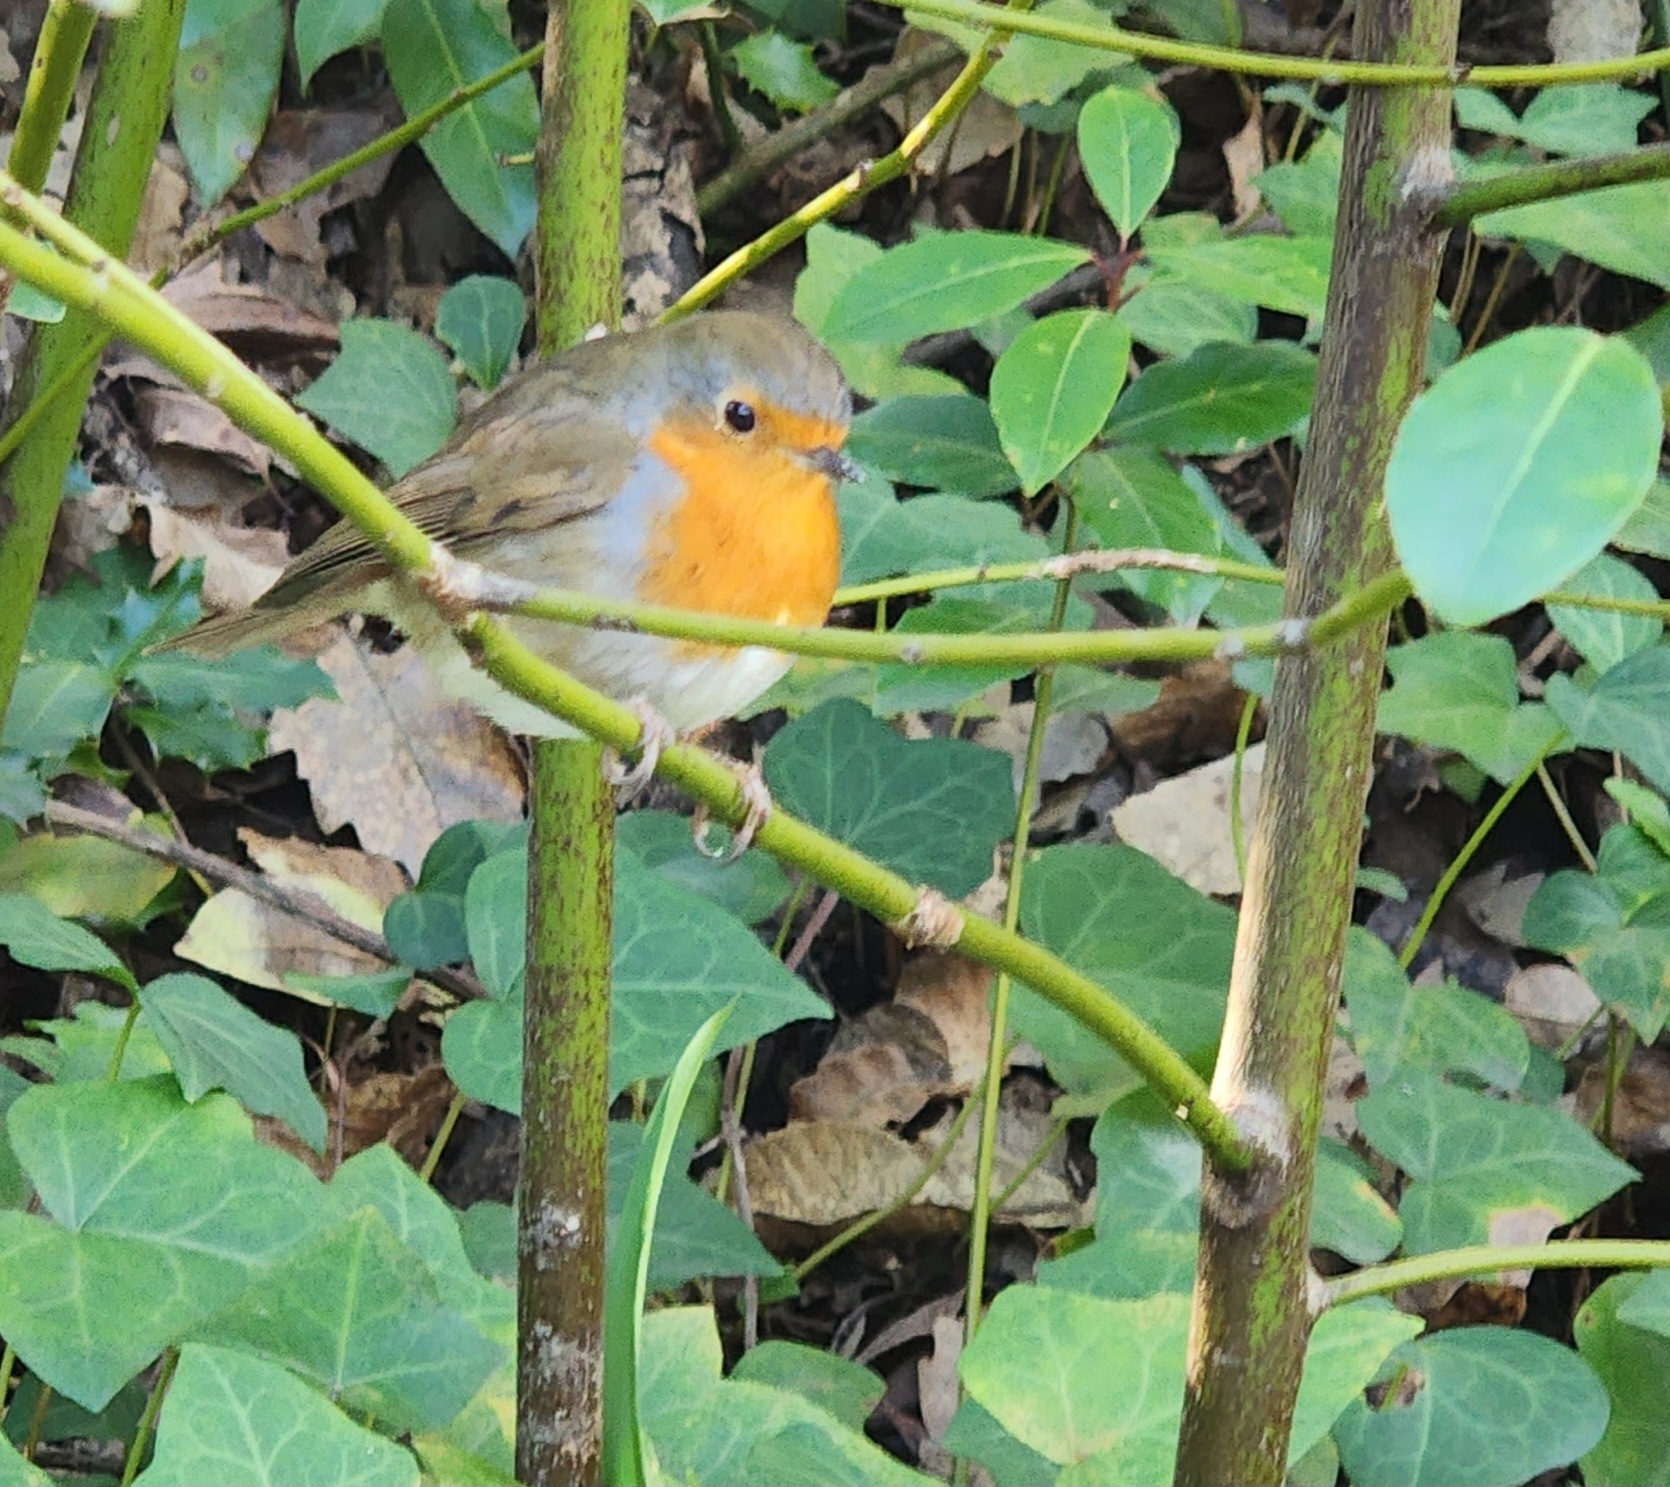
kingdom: Animalia
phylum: Chordata
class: Aves
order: Passeriformes
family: Muscicapidae
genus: Erithacus
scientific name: Erithacus rubecula
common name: European robin
